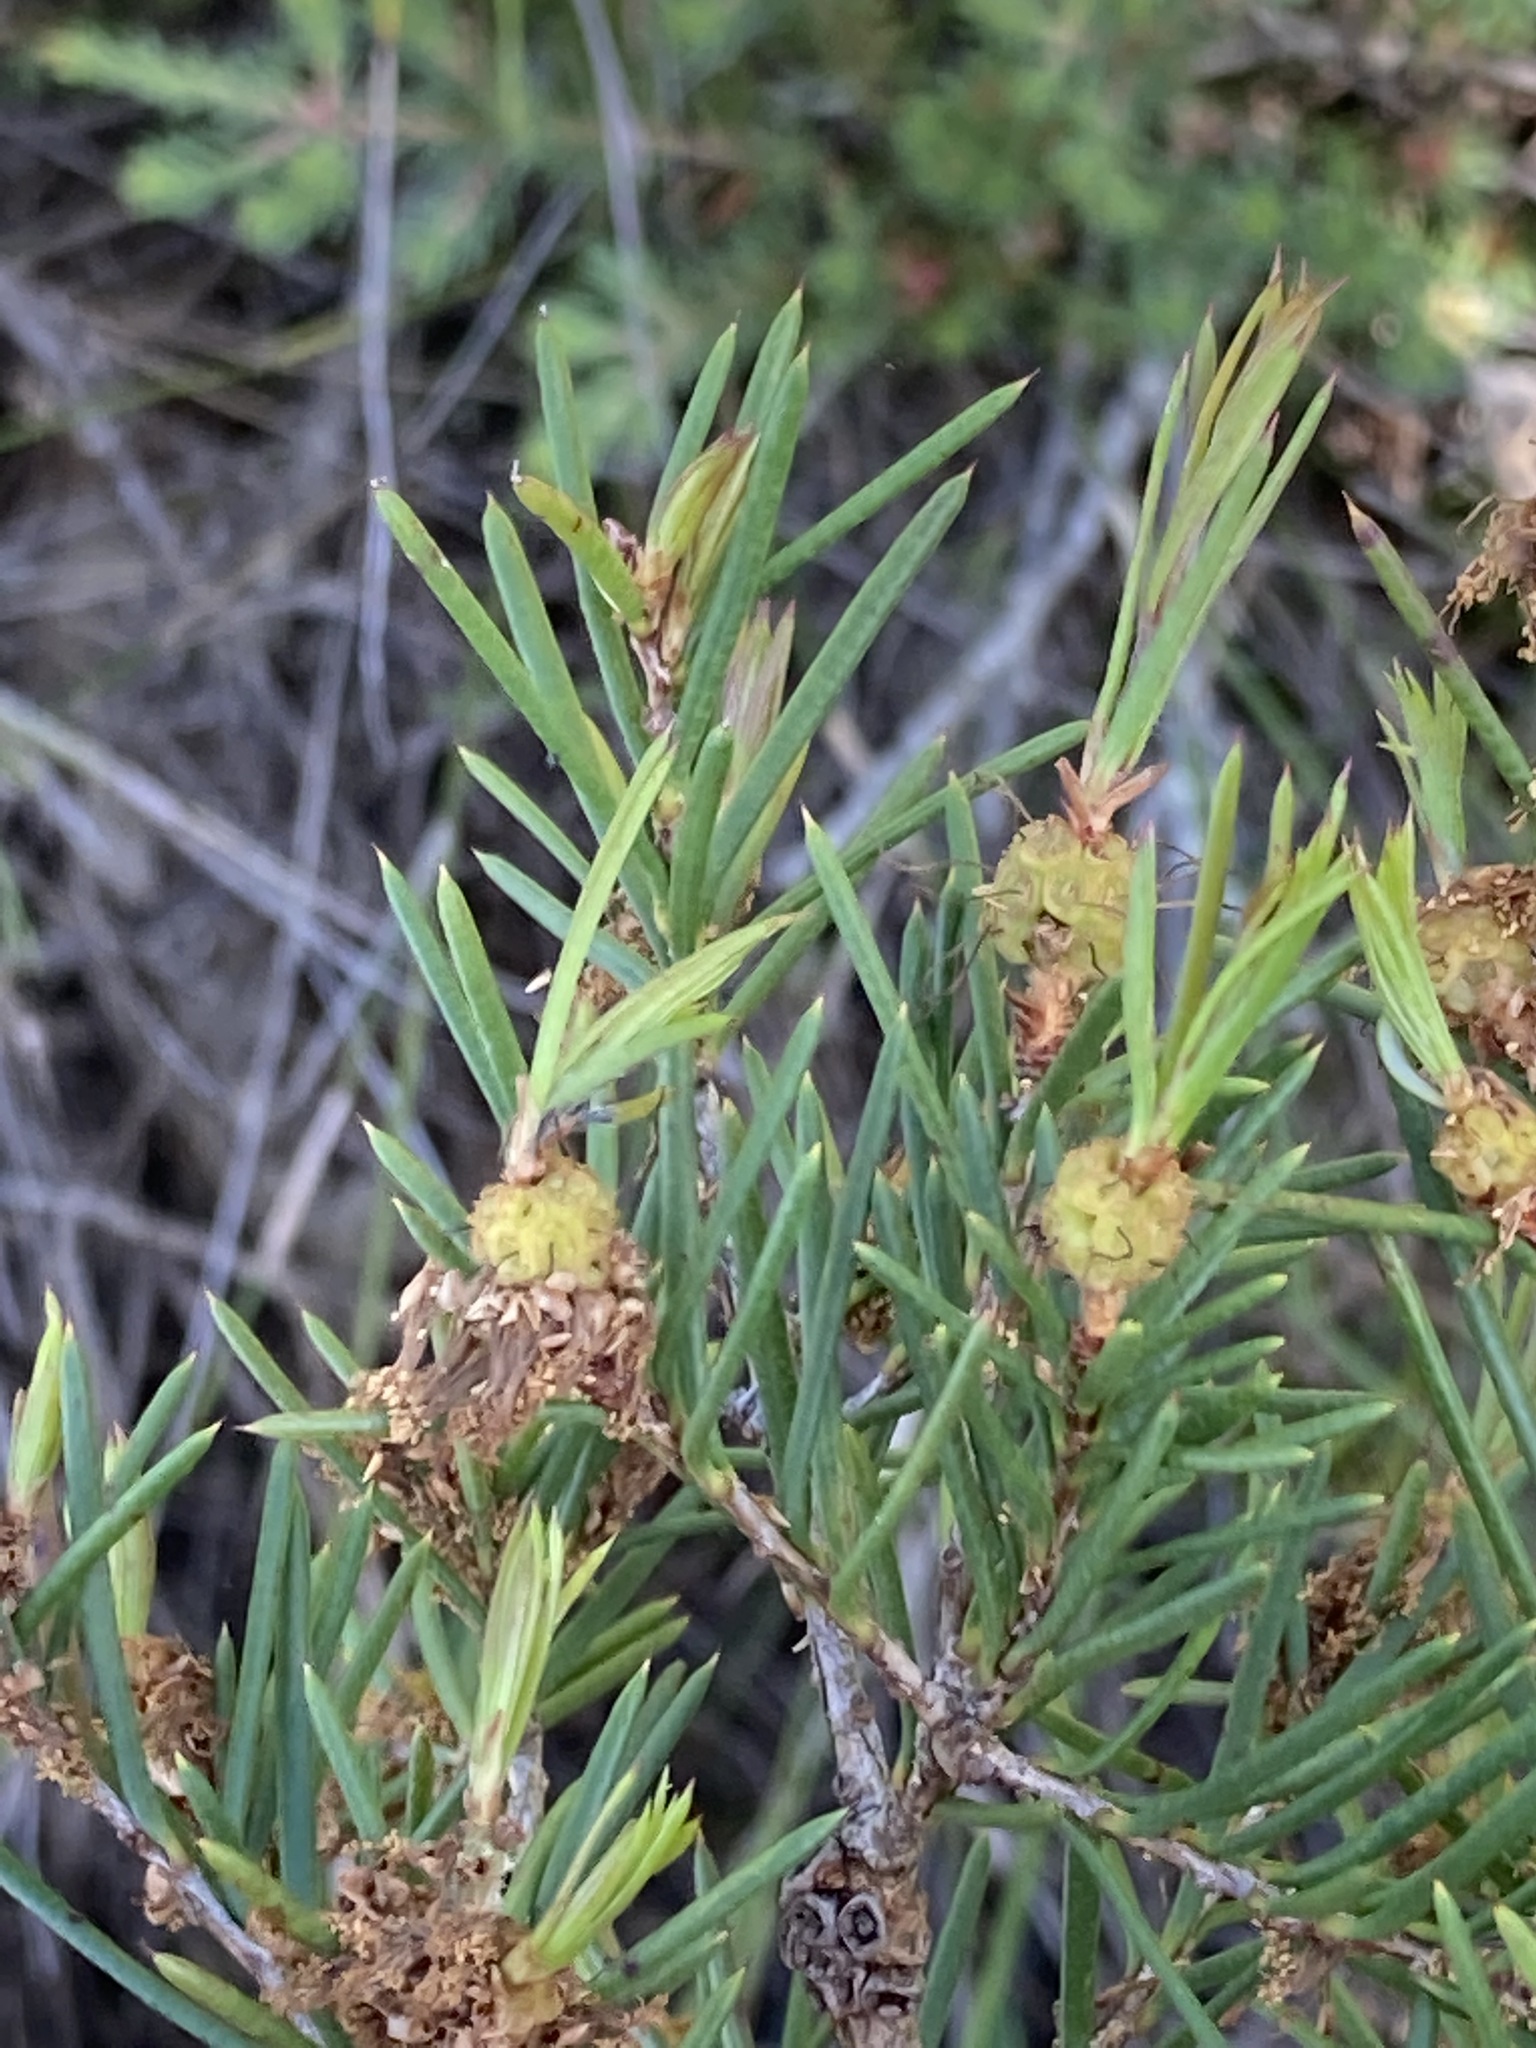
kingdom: Plantae
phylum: Tracheophyta
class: Magnoliopsida
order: Myrtales
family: Myrtaceae
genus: Melaleuca
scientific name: Melaleuca nodosa
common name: Prickly-leaf paperbark
